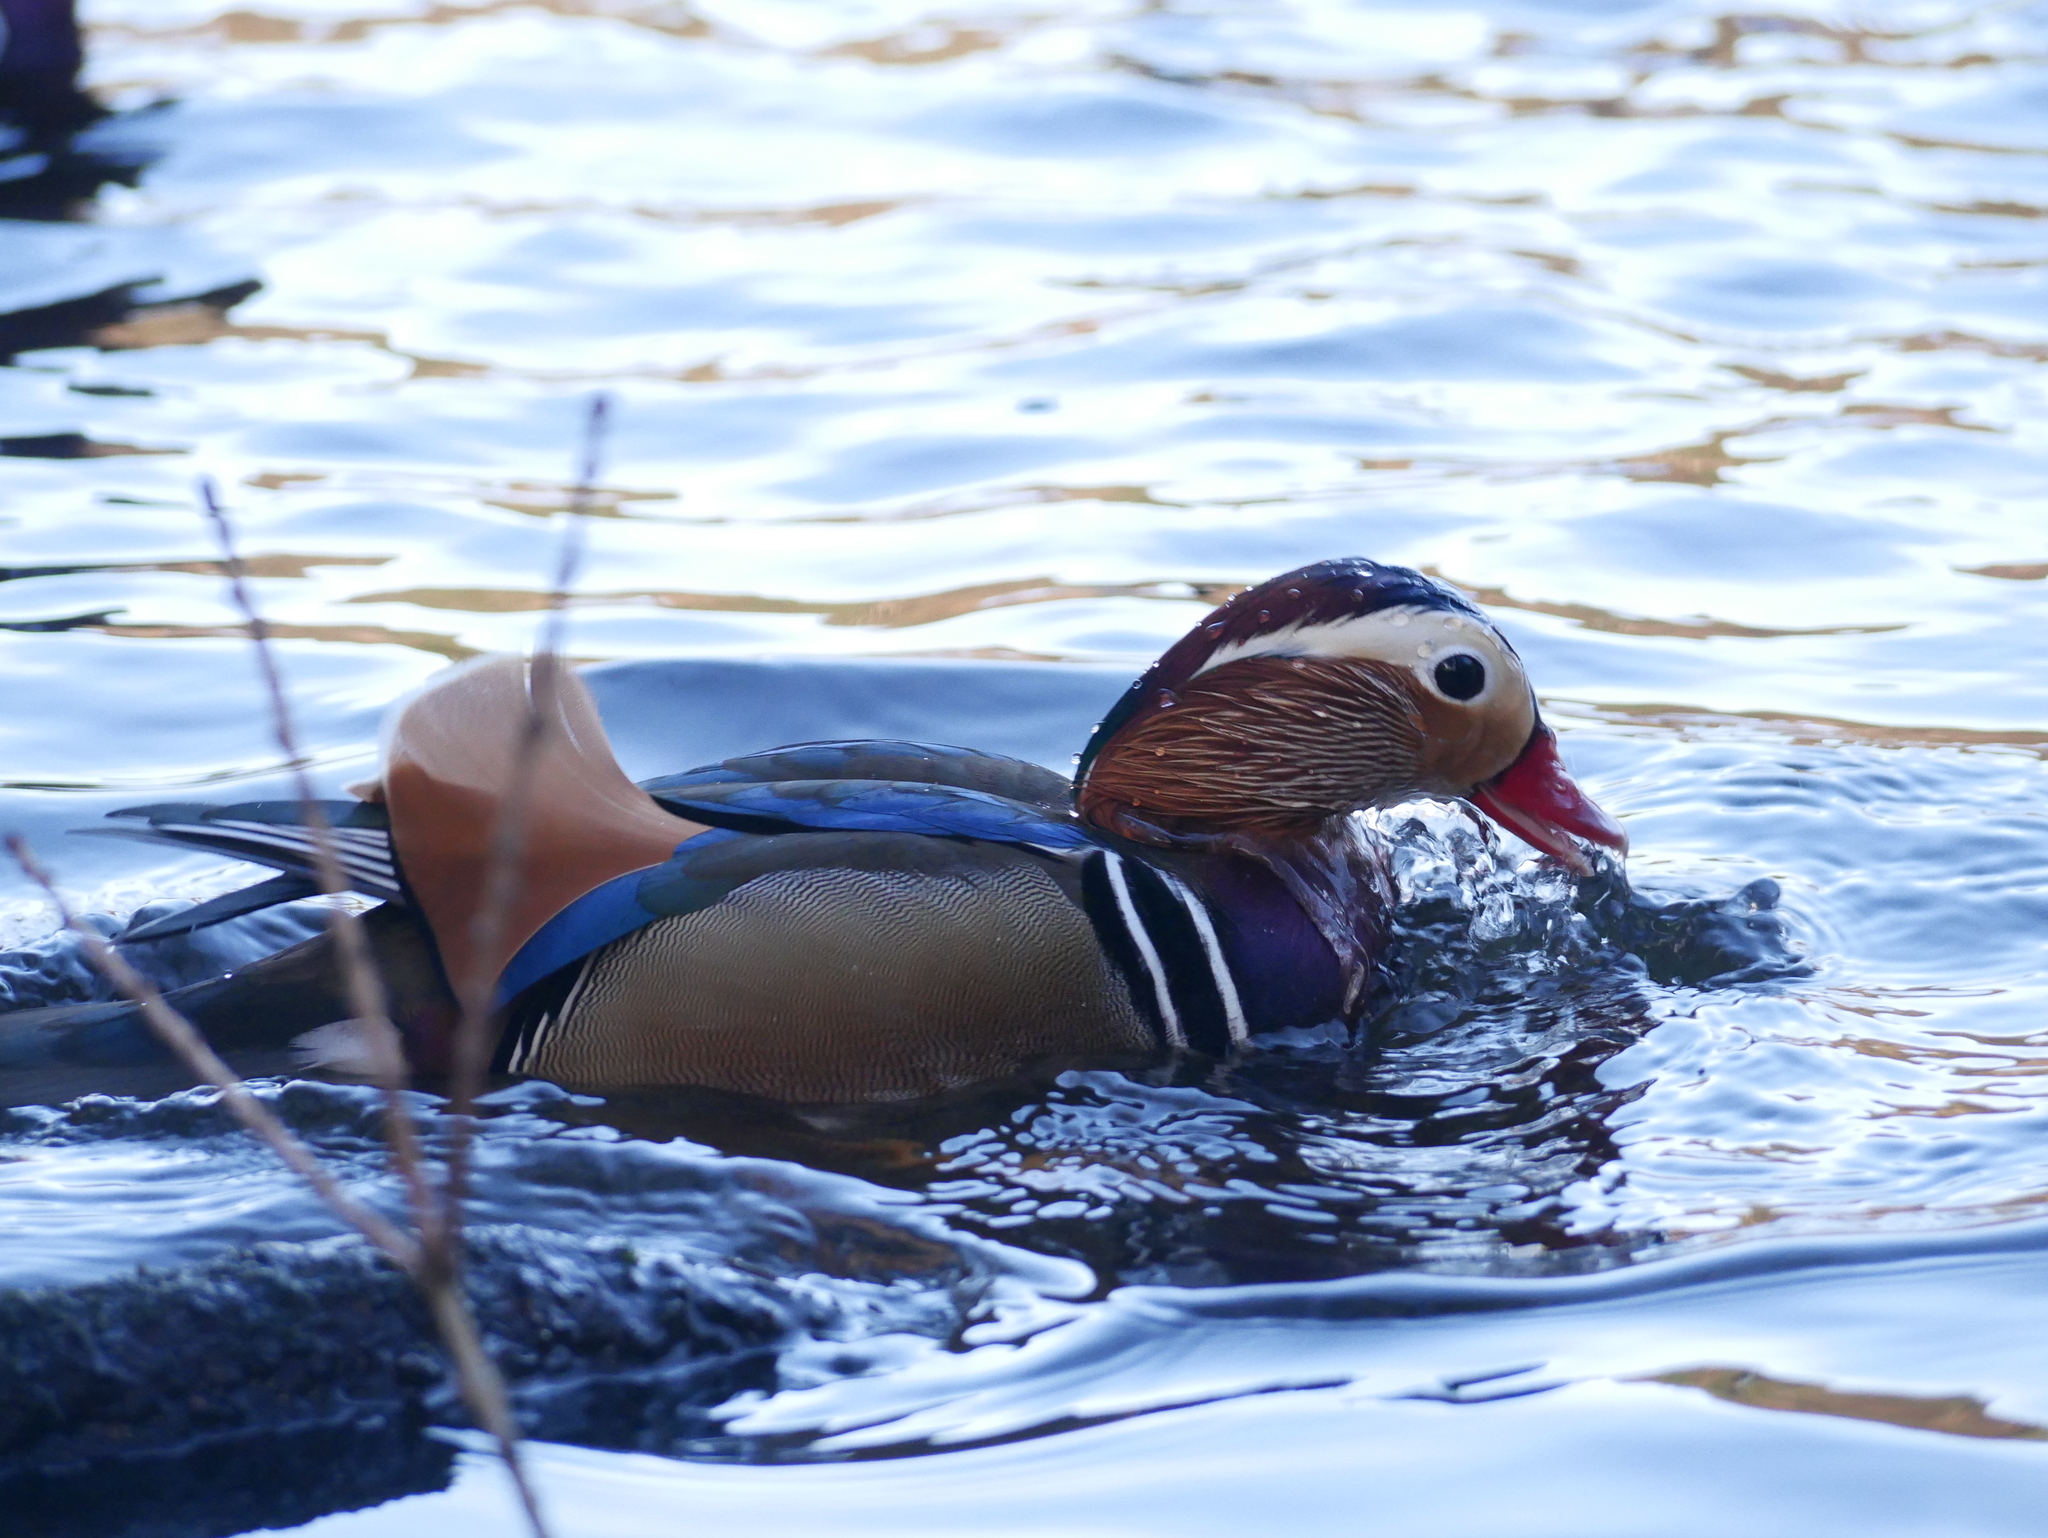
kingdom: Animalia
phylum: Chordata
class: Aves
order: Anseriformes
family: Anatidae
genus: Aix
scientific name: Aix galericulata
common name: Mandarin duck
